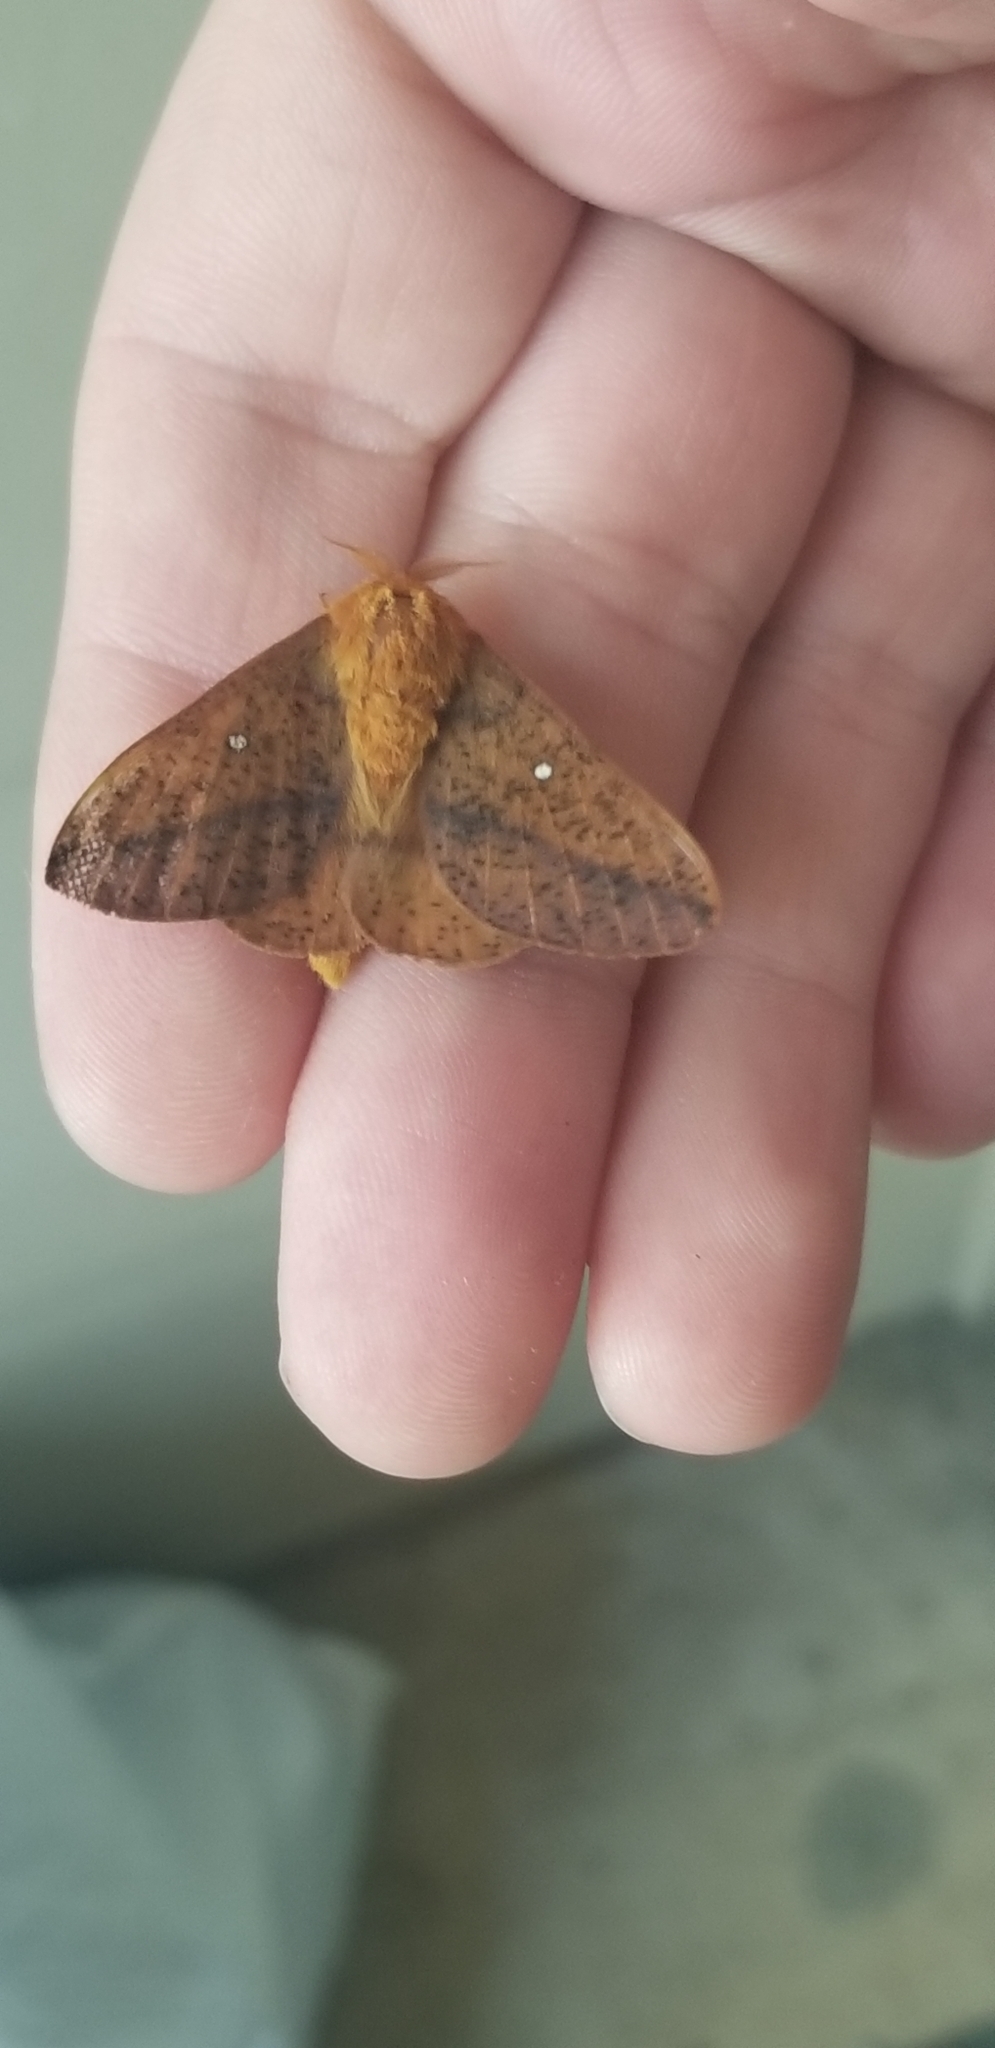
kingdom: Animalia
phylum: Arthropoda
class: Insecta
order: Lepidoptera
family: Saturniidae
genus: Anisota
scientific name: Anisota stigma
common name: Spiny oakworm moth
